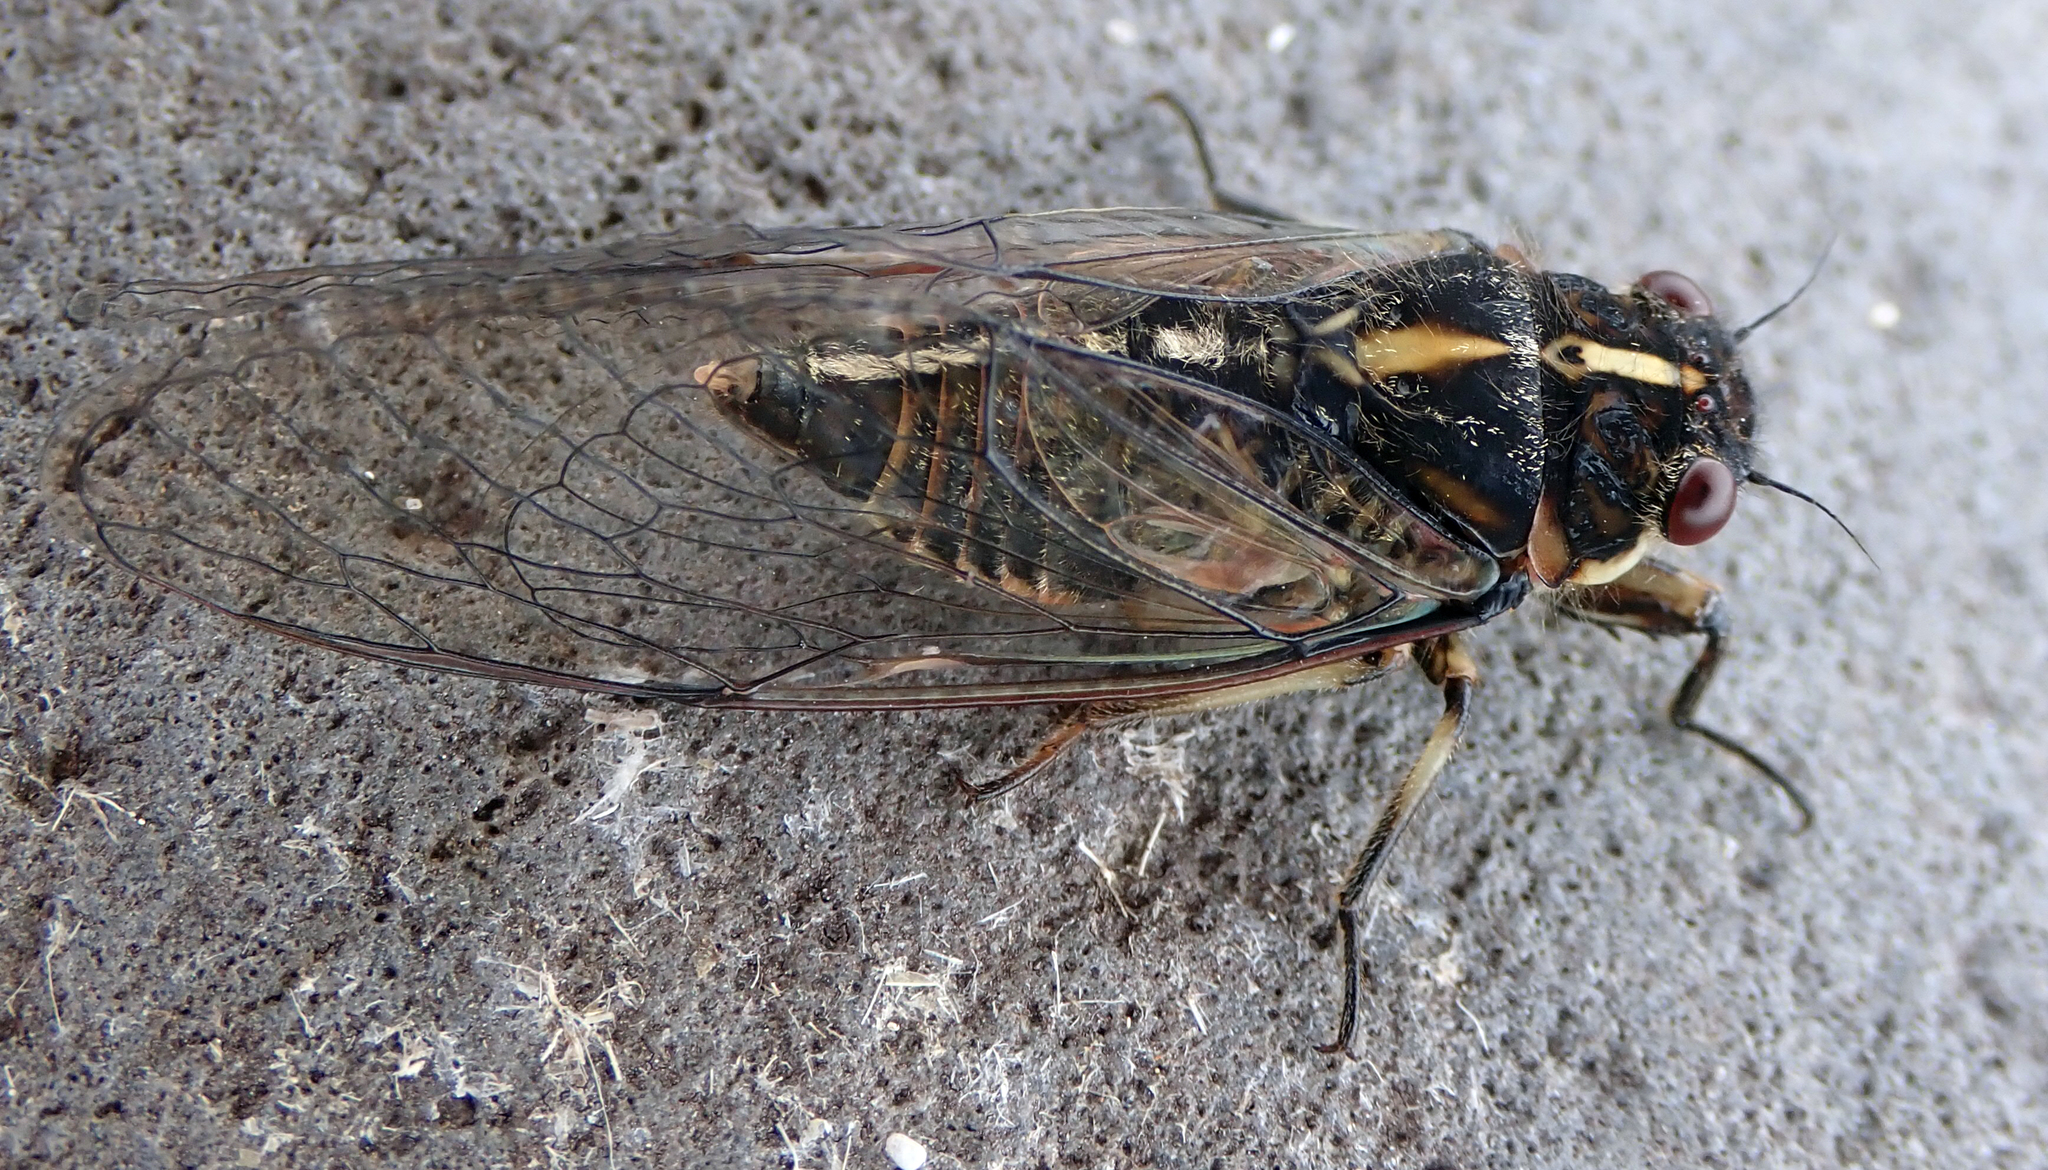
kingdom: Animalia
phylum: Arthropoda
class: Insecta
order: Hemiptera
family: Cicadidae
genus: Kikihia
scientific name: Kikihia longula
